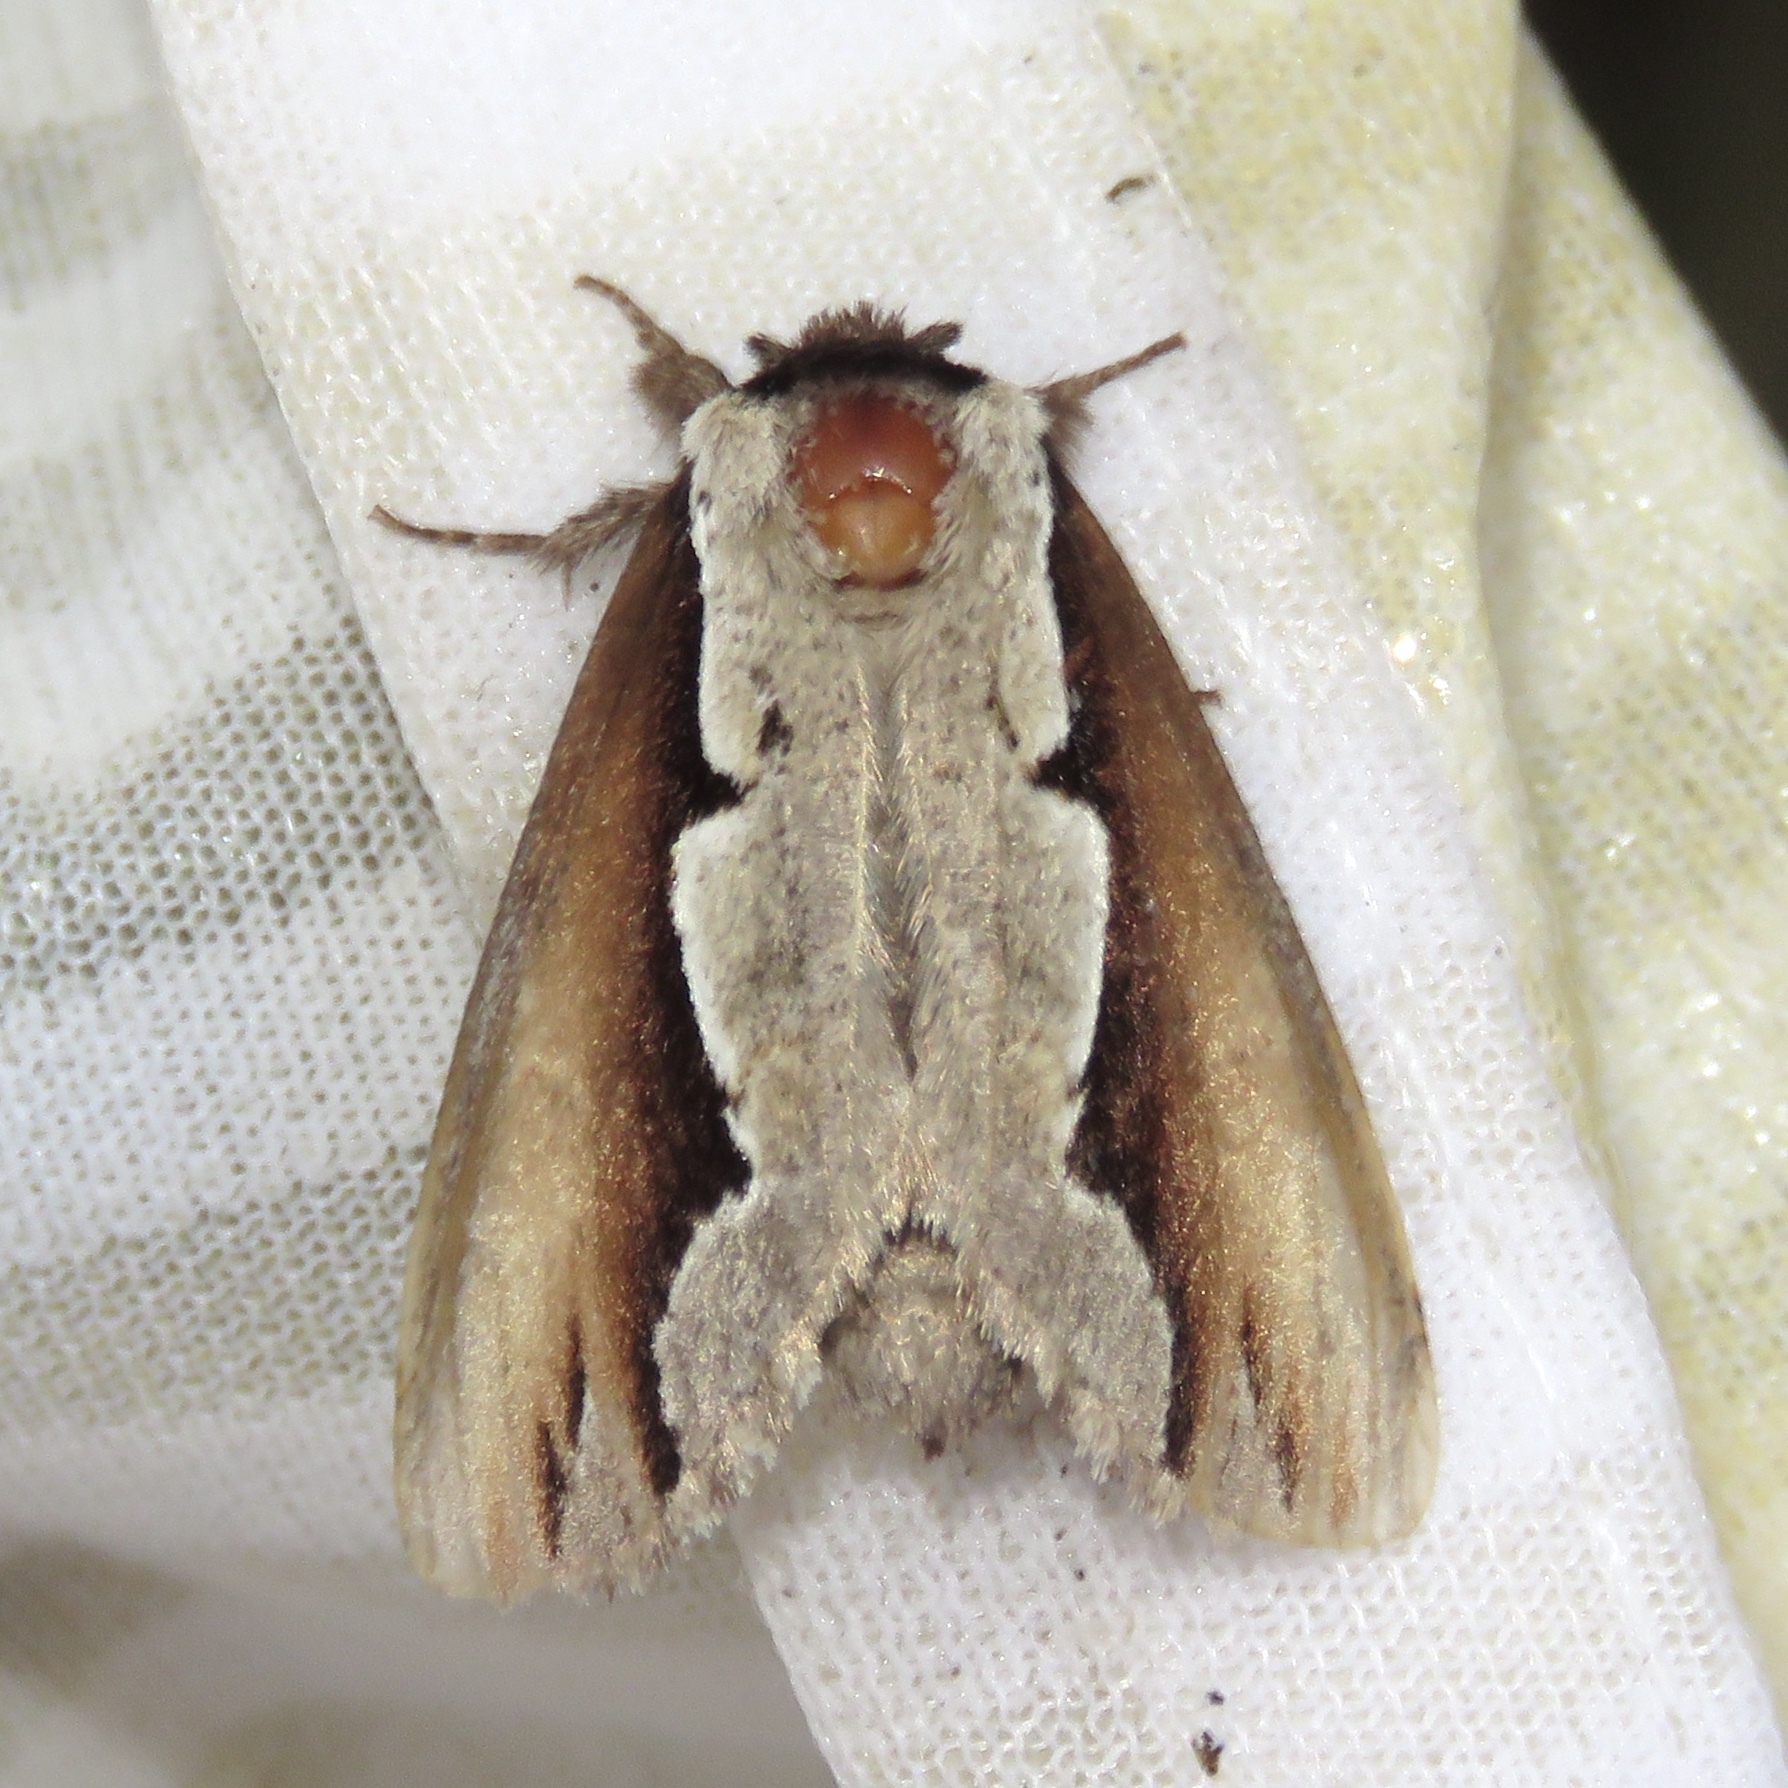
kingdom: Animalia
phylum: Arthropoda
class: Insecta
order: Lepidoptera
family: Notodontidae
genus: Nerice
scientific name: Nerice bidentata
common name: Double-toothed prominent
